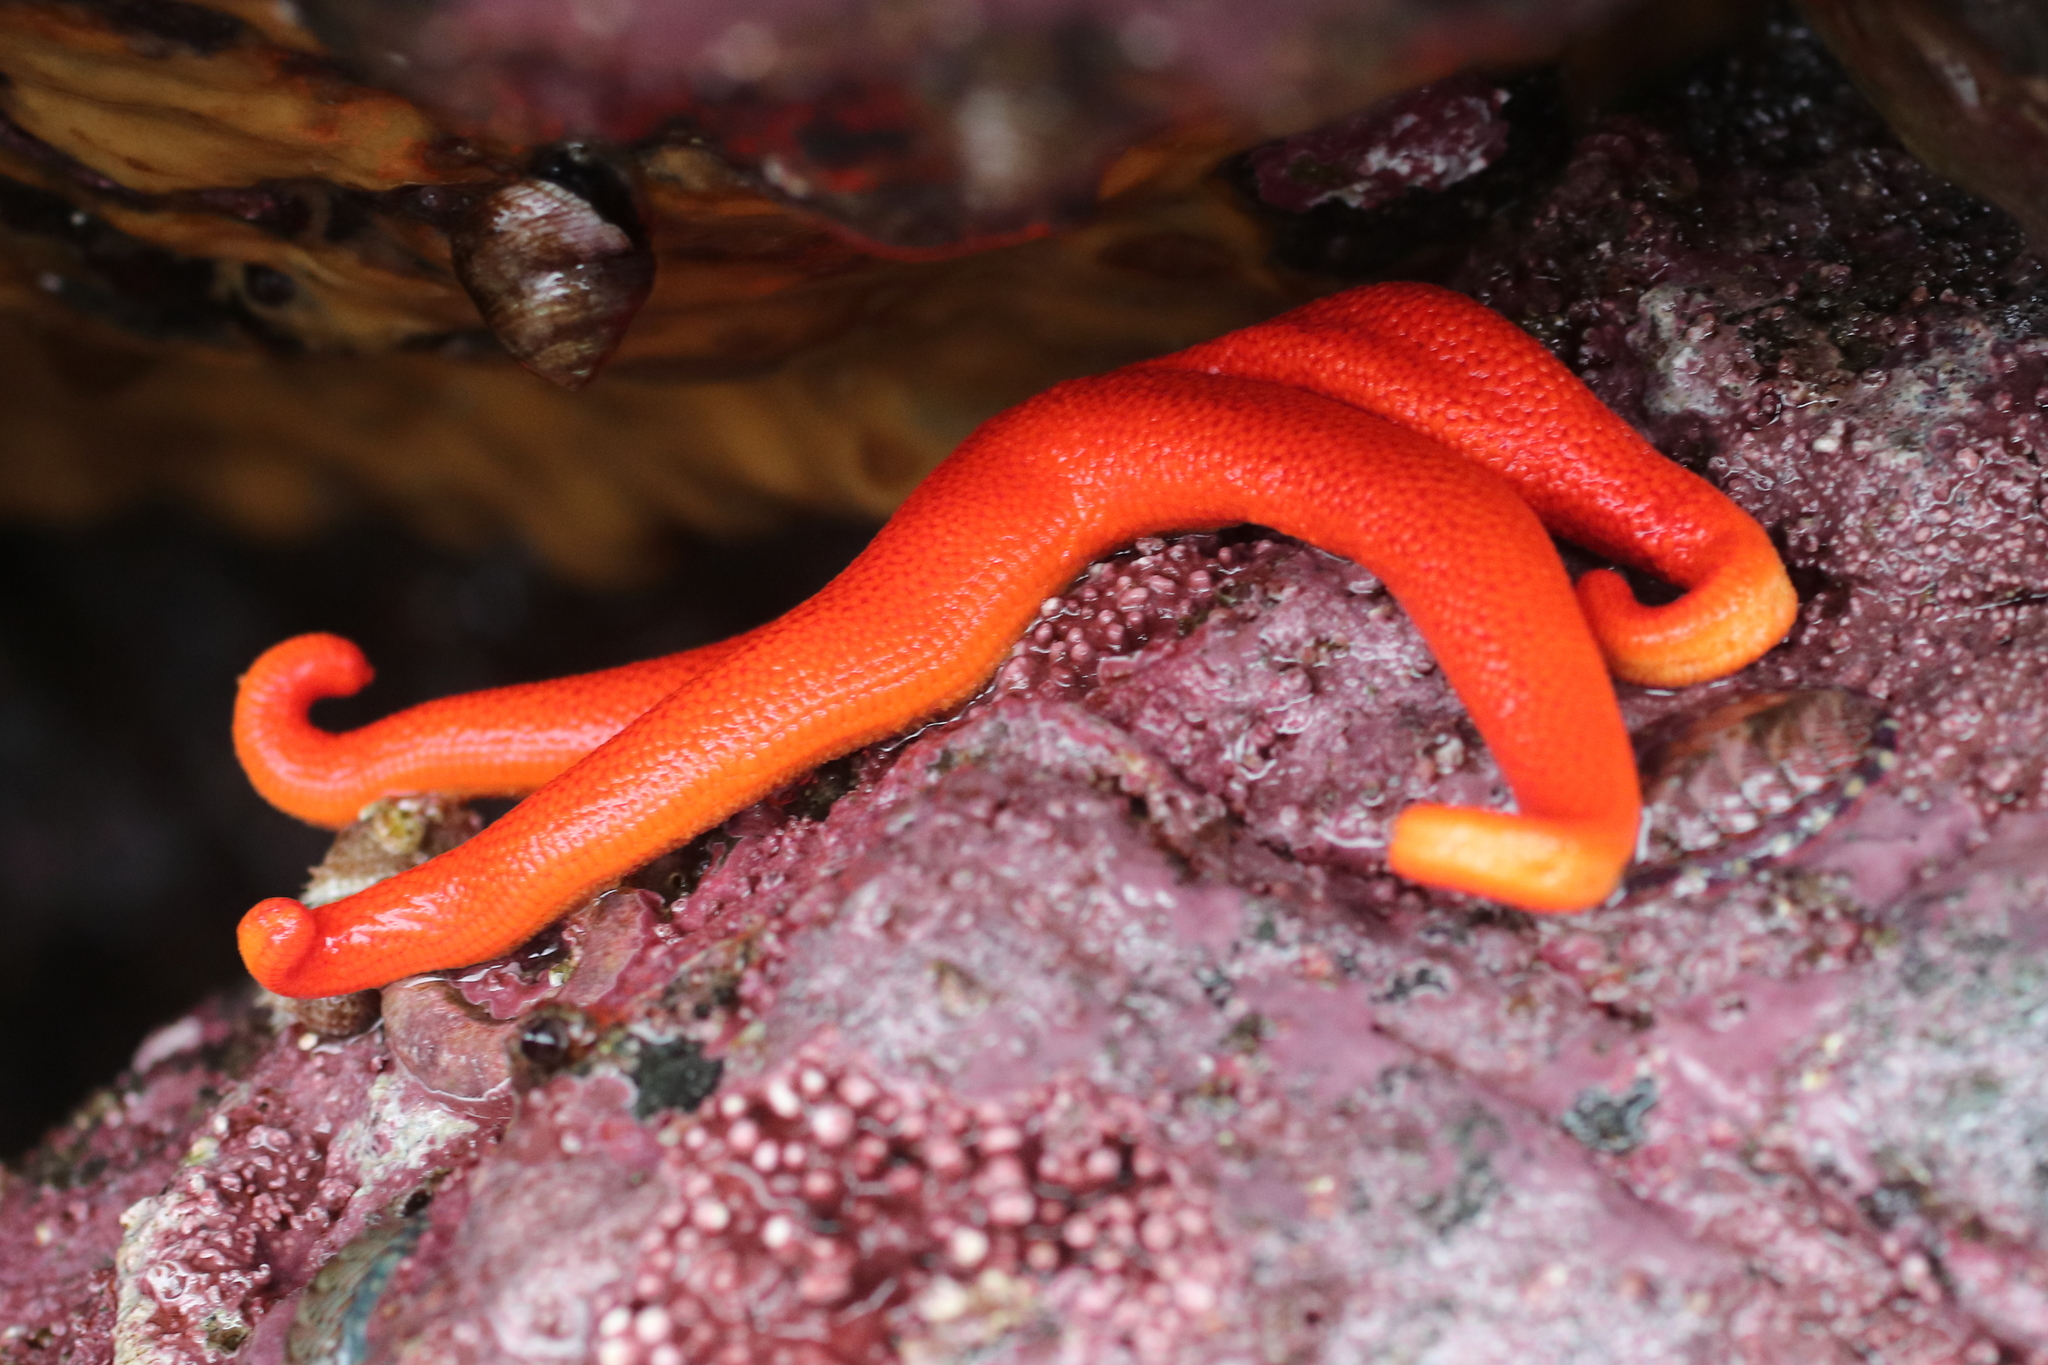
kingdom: Animalia
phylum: Echinodermata
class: Asteroidea
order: Spinulosida
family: Echinasteridae
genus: Henricia
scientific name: Henricia leviuscula
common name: Pacific blood star
